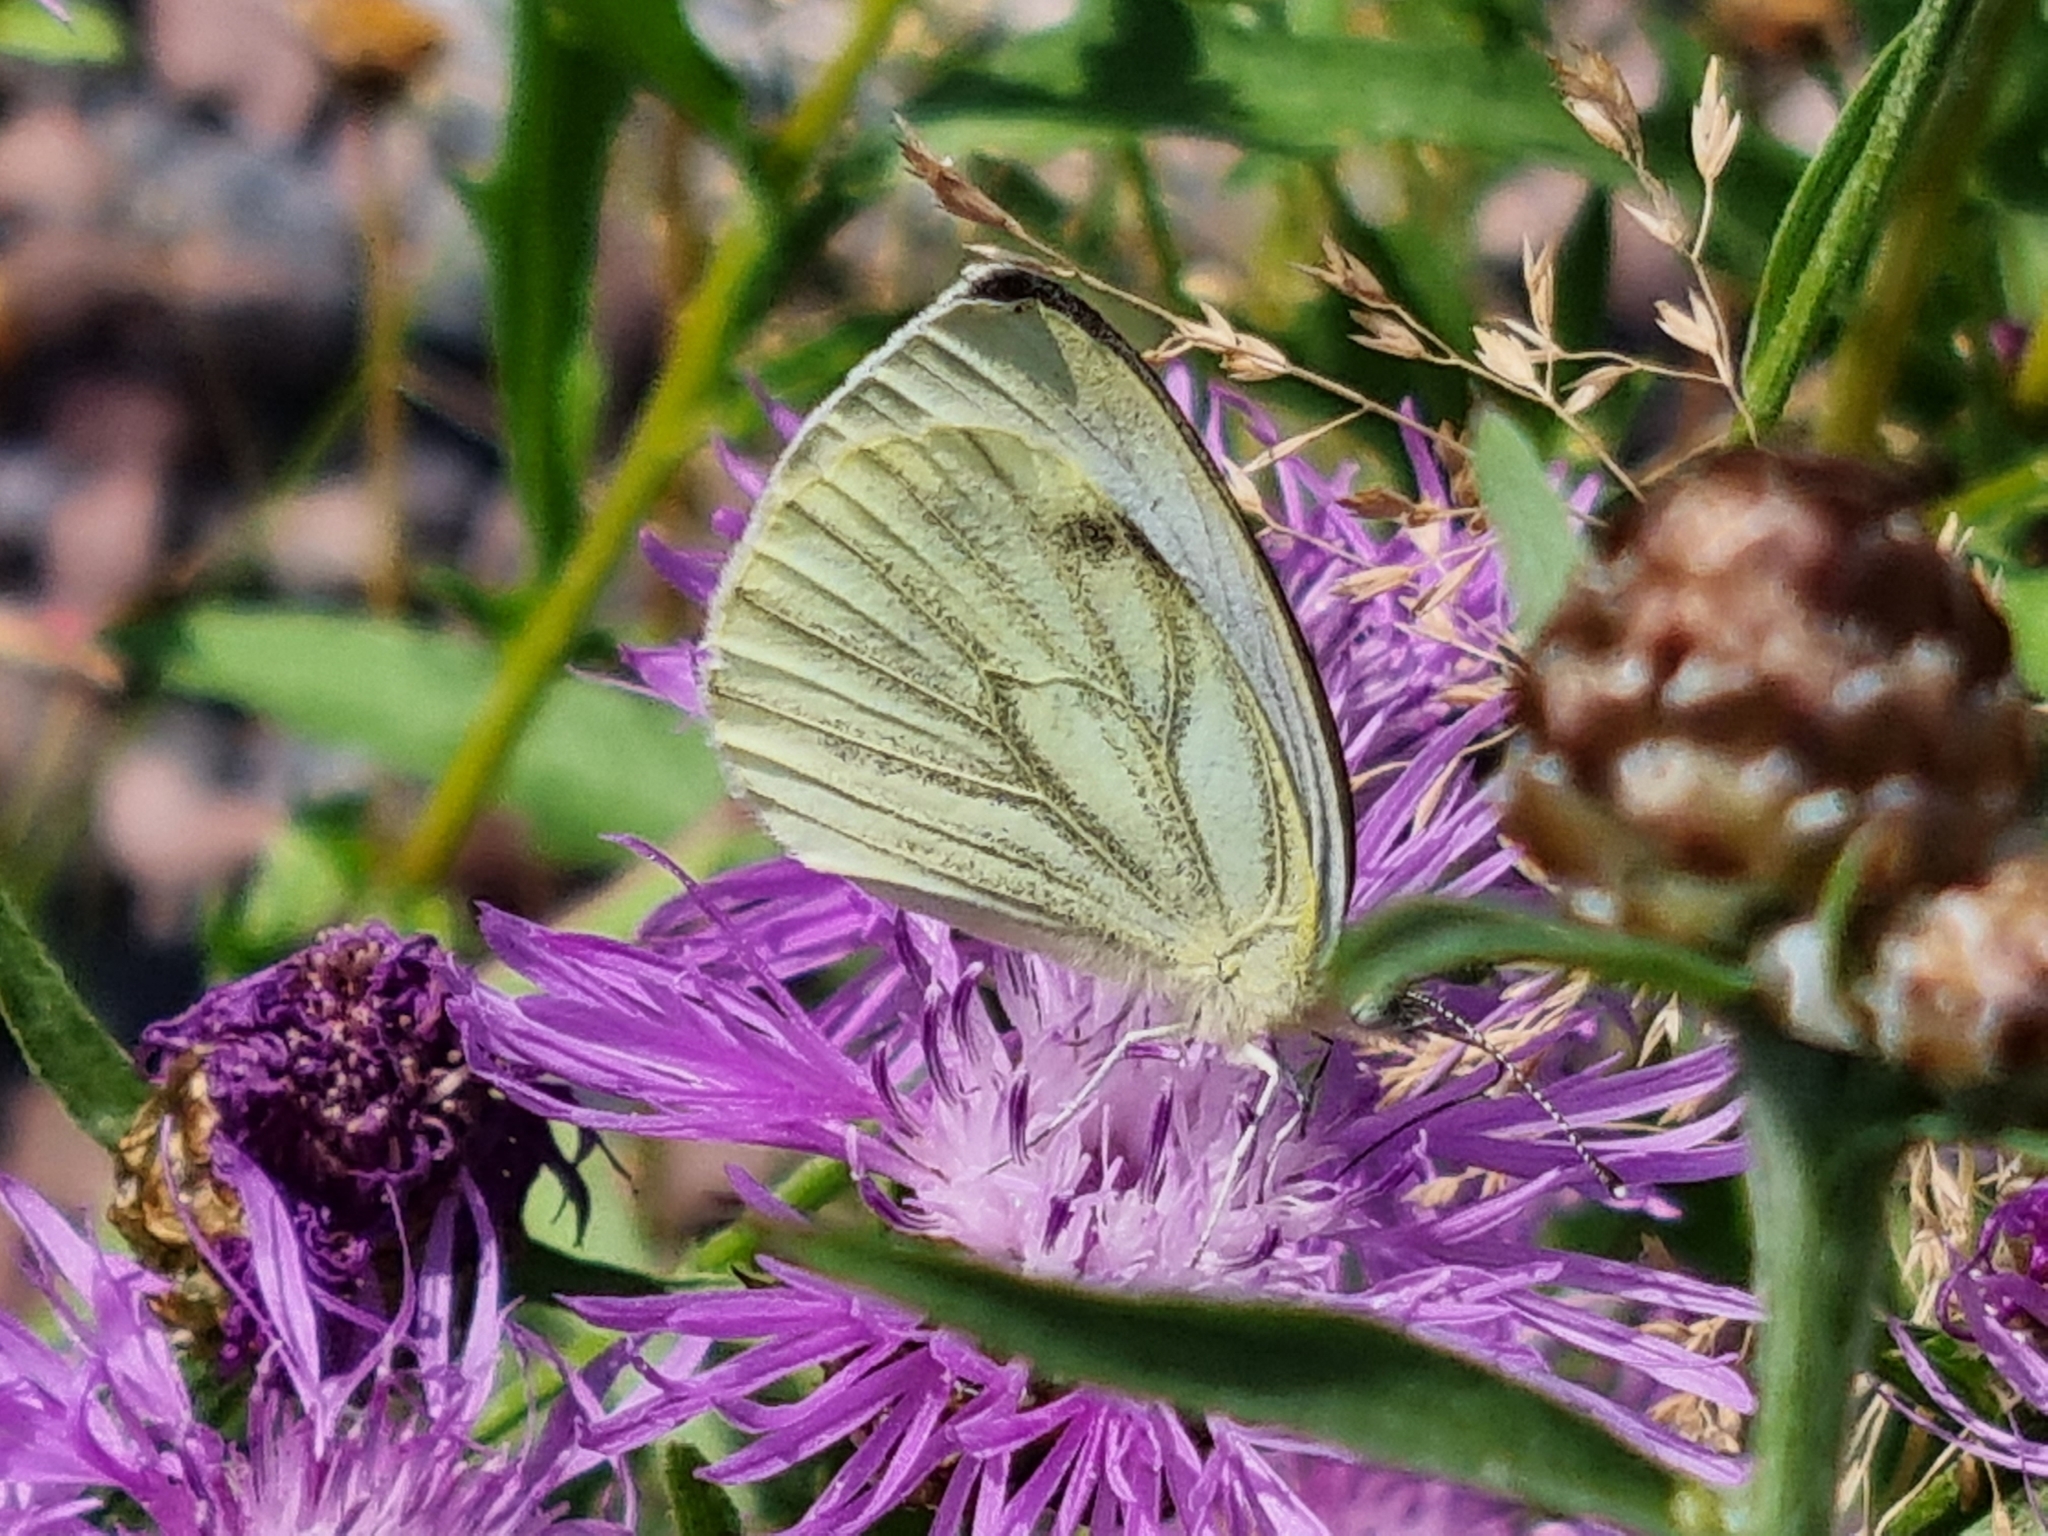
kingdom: Animalia
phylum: Arthropoda
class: Insecta
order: Lepidoptera
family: Pieridae
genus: Pieris
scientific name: Pieris napi
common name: Green-veined white
